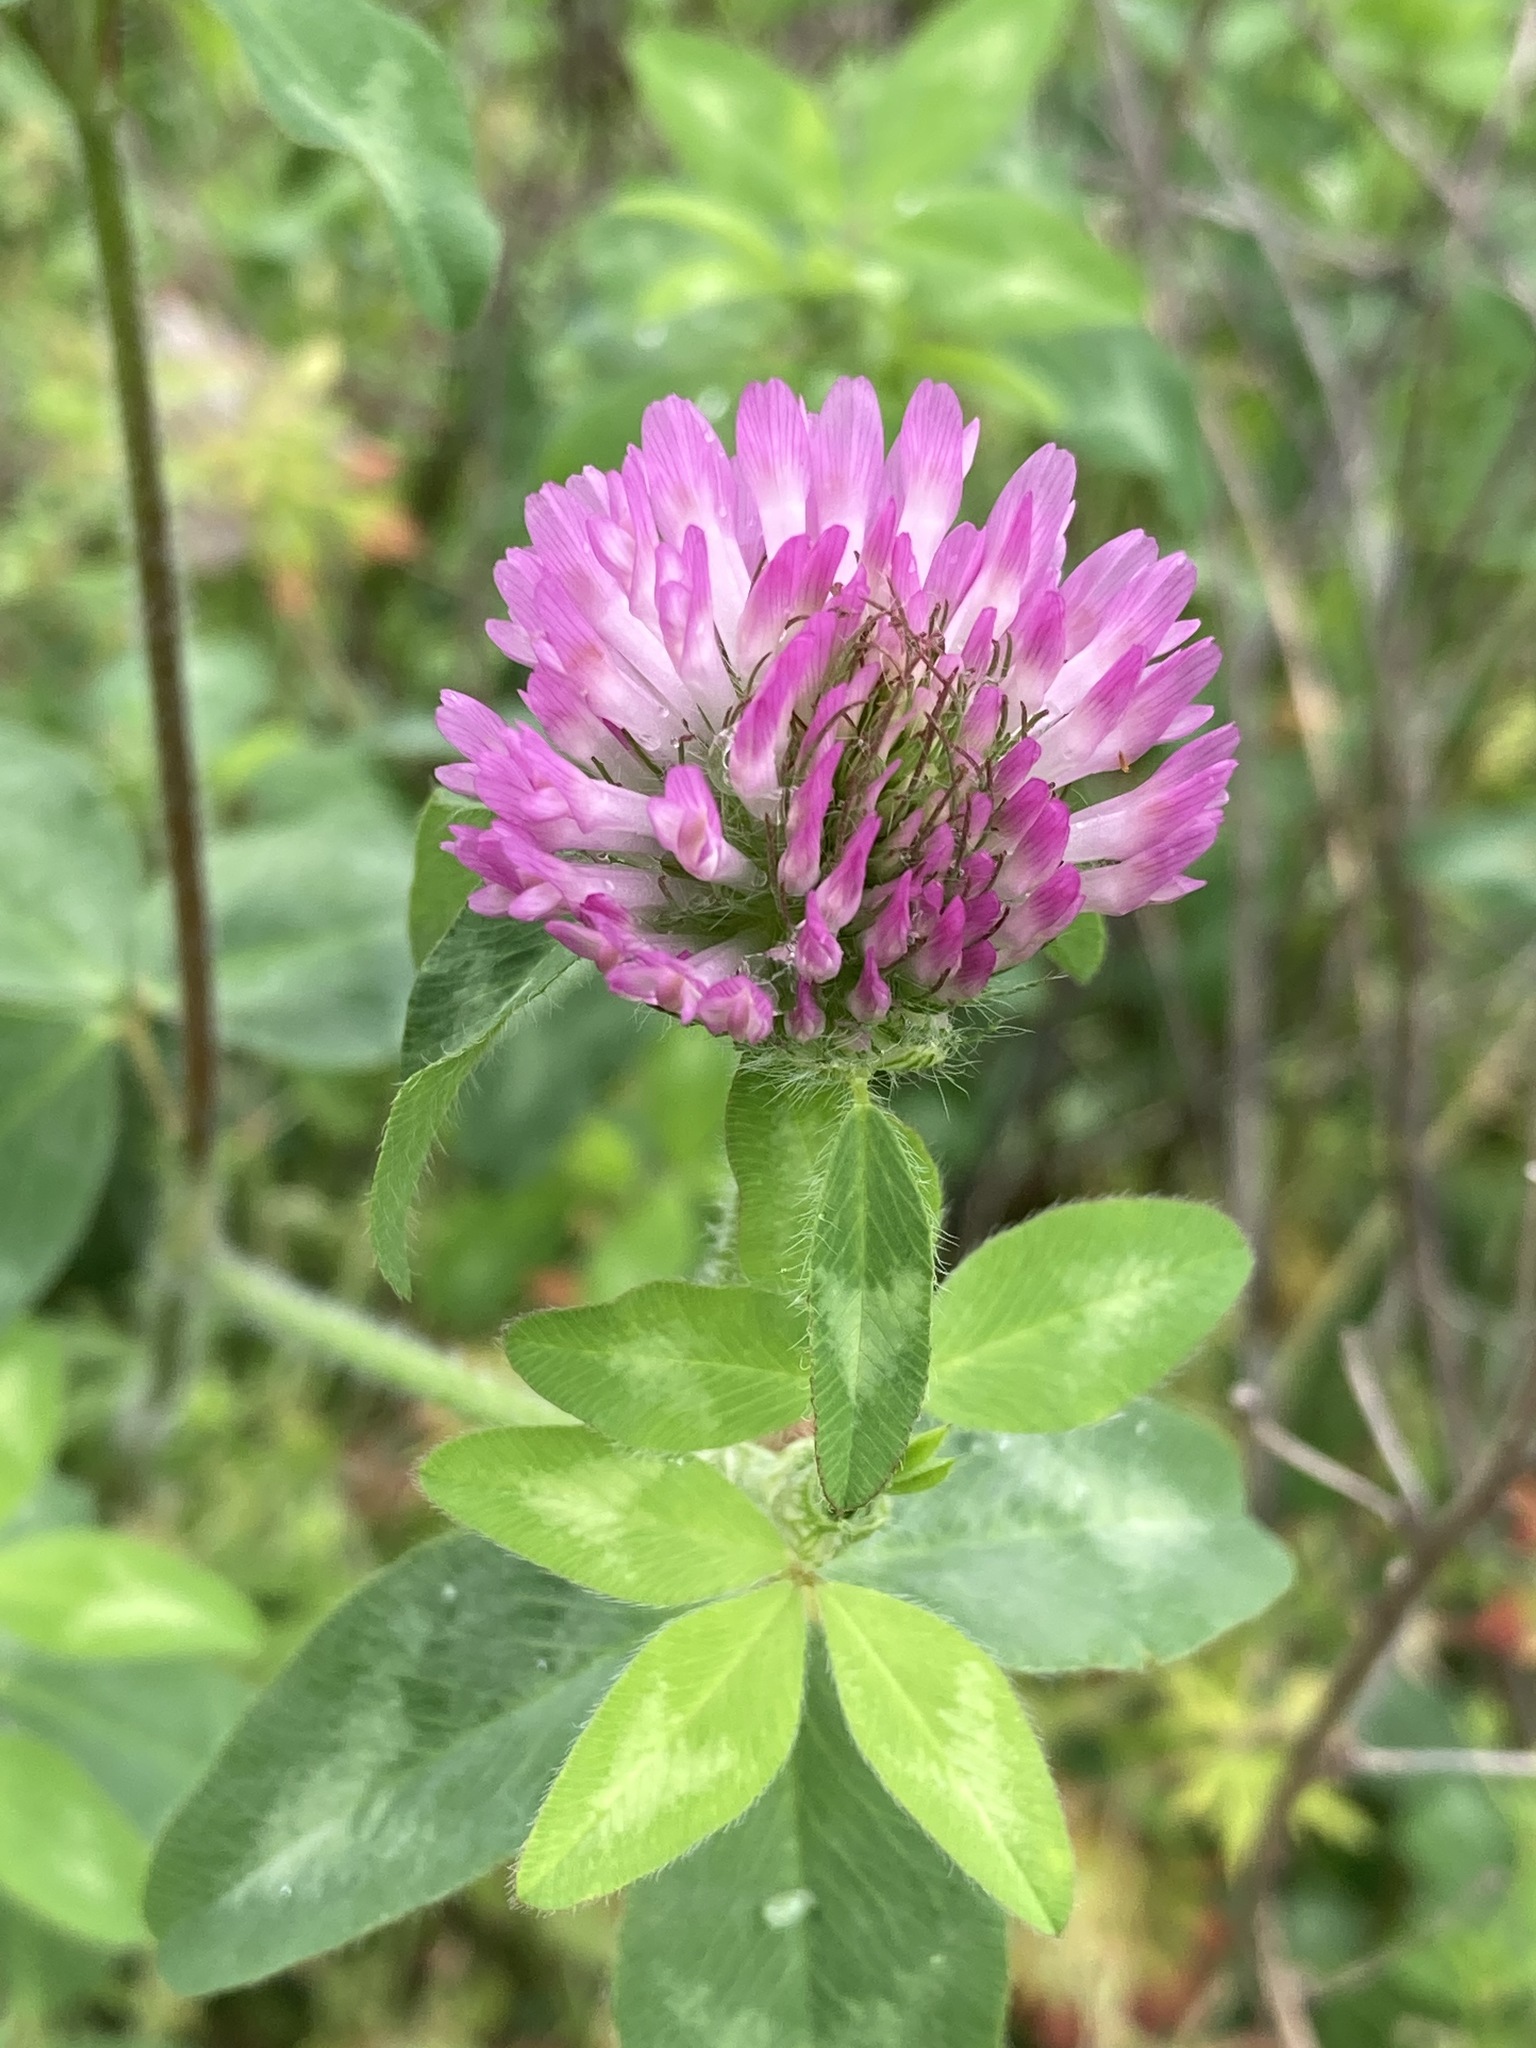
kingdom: Plantae
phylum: Tracheophyta
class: Magnoliopsida
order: Fabales
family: Fabaceae
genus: Trifolium
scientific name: Trifolium pratense
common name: Red clover
